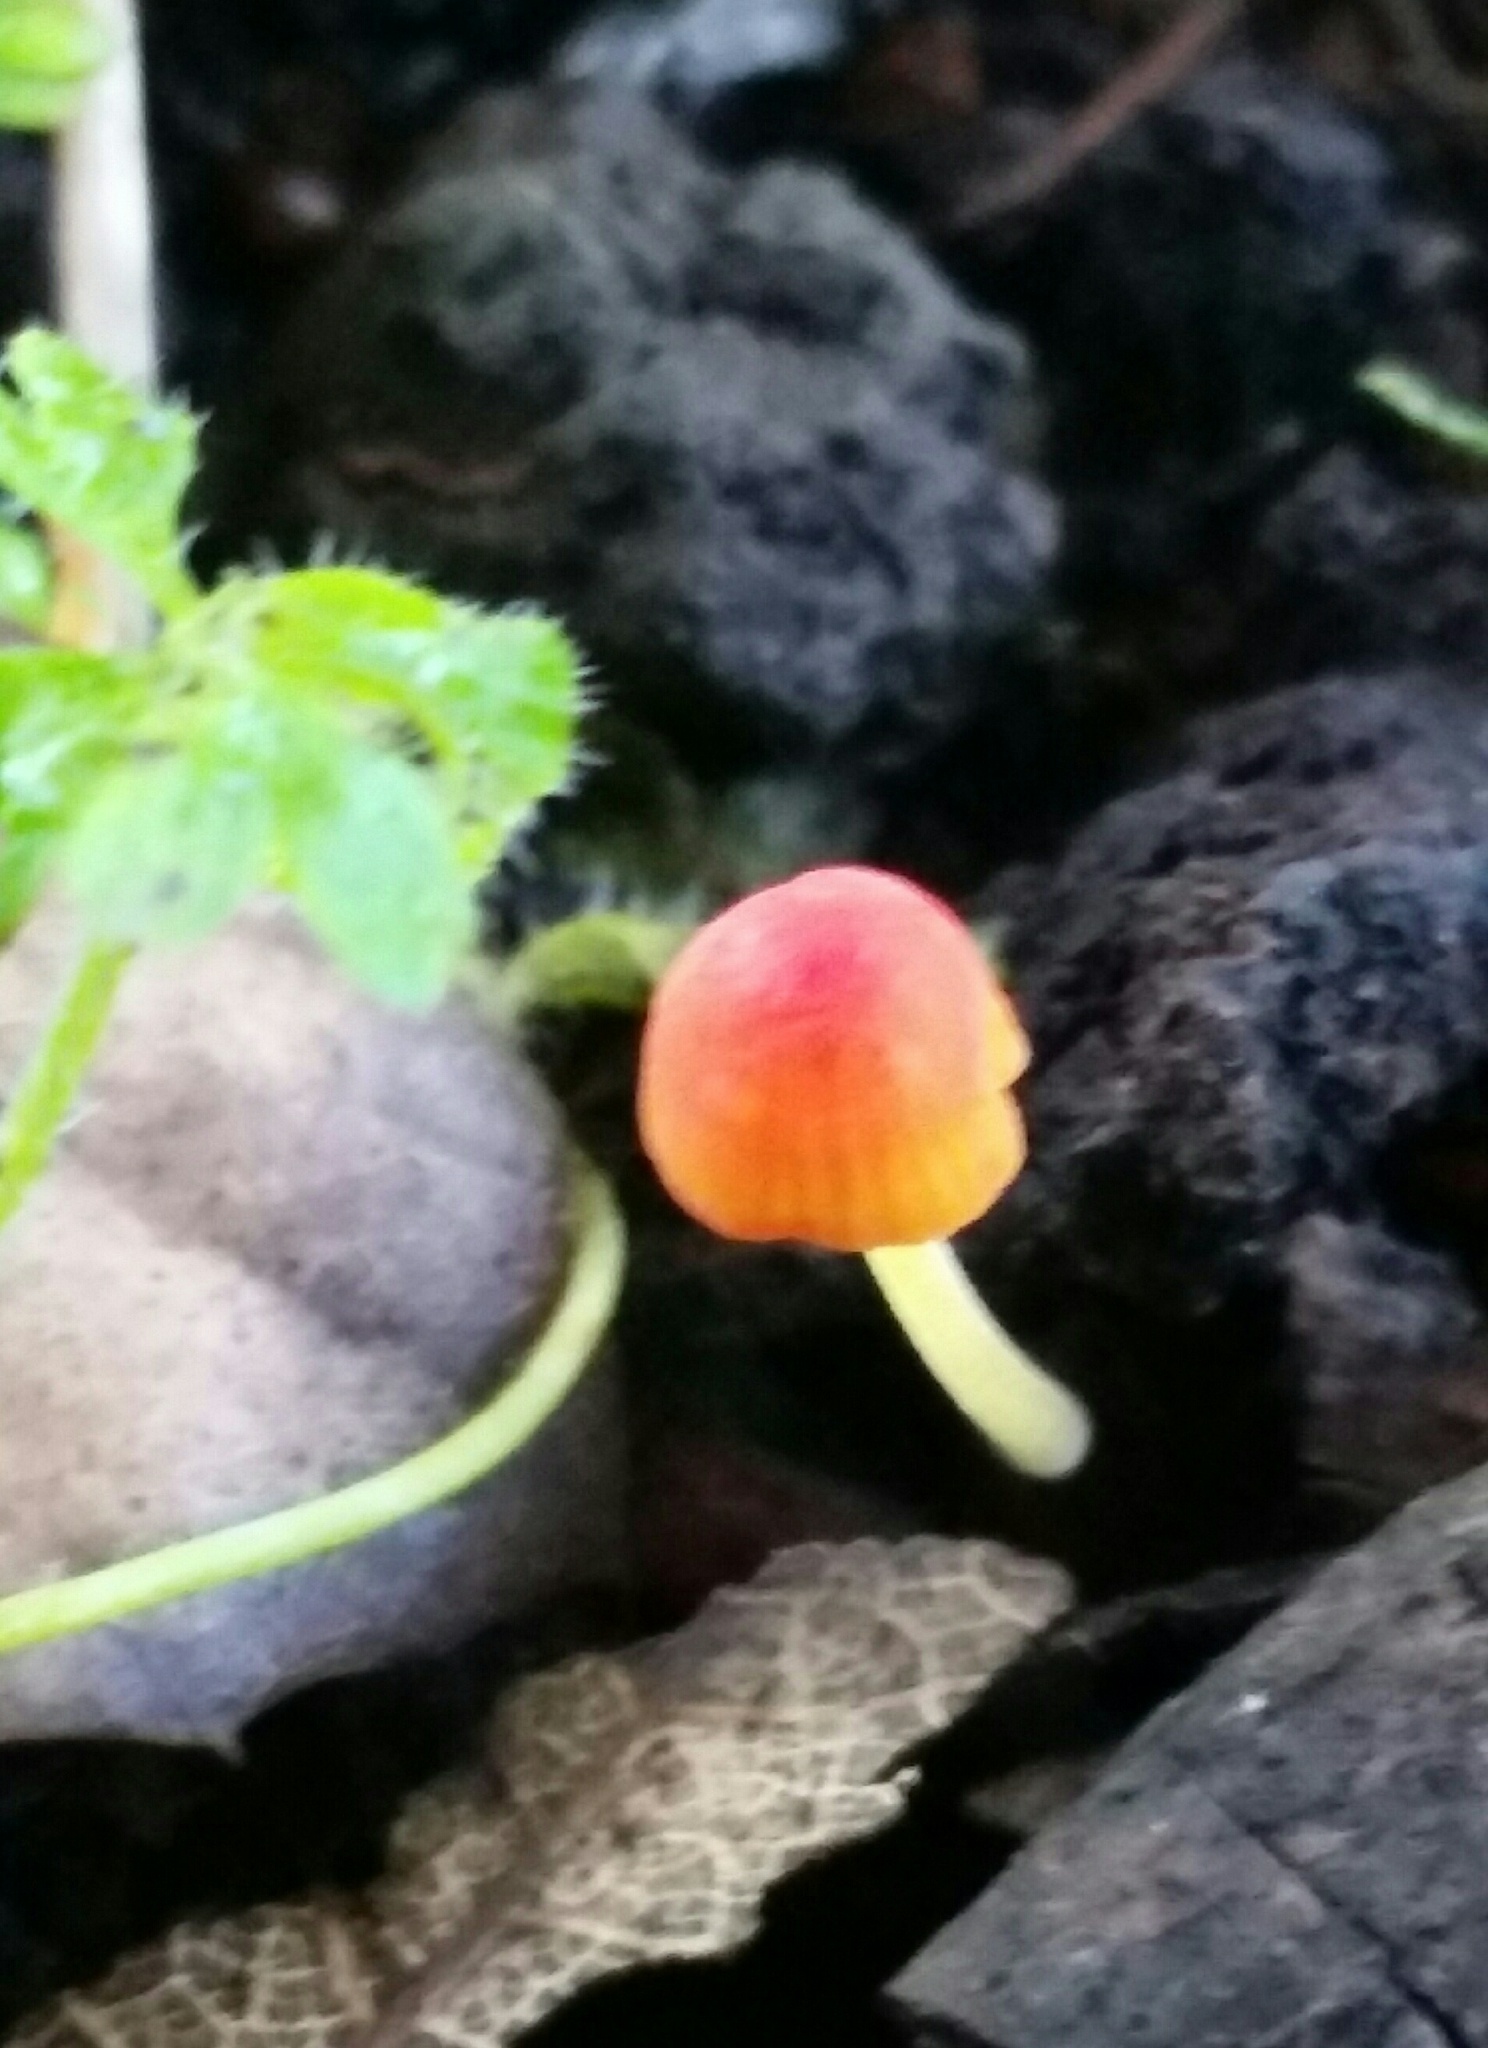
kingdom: Fungi
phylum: Basidiomycota
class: Agaricomycetes
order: Agaricales
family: Mycenaceae
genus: Mycena
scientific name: Mycena acicula
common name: Orange bonnet
